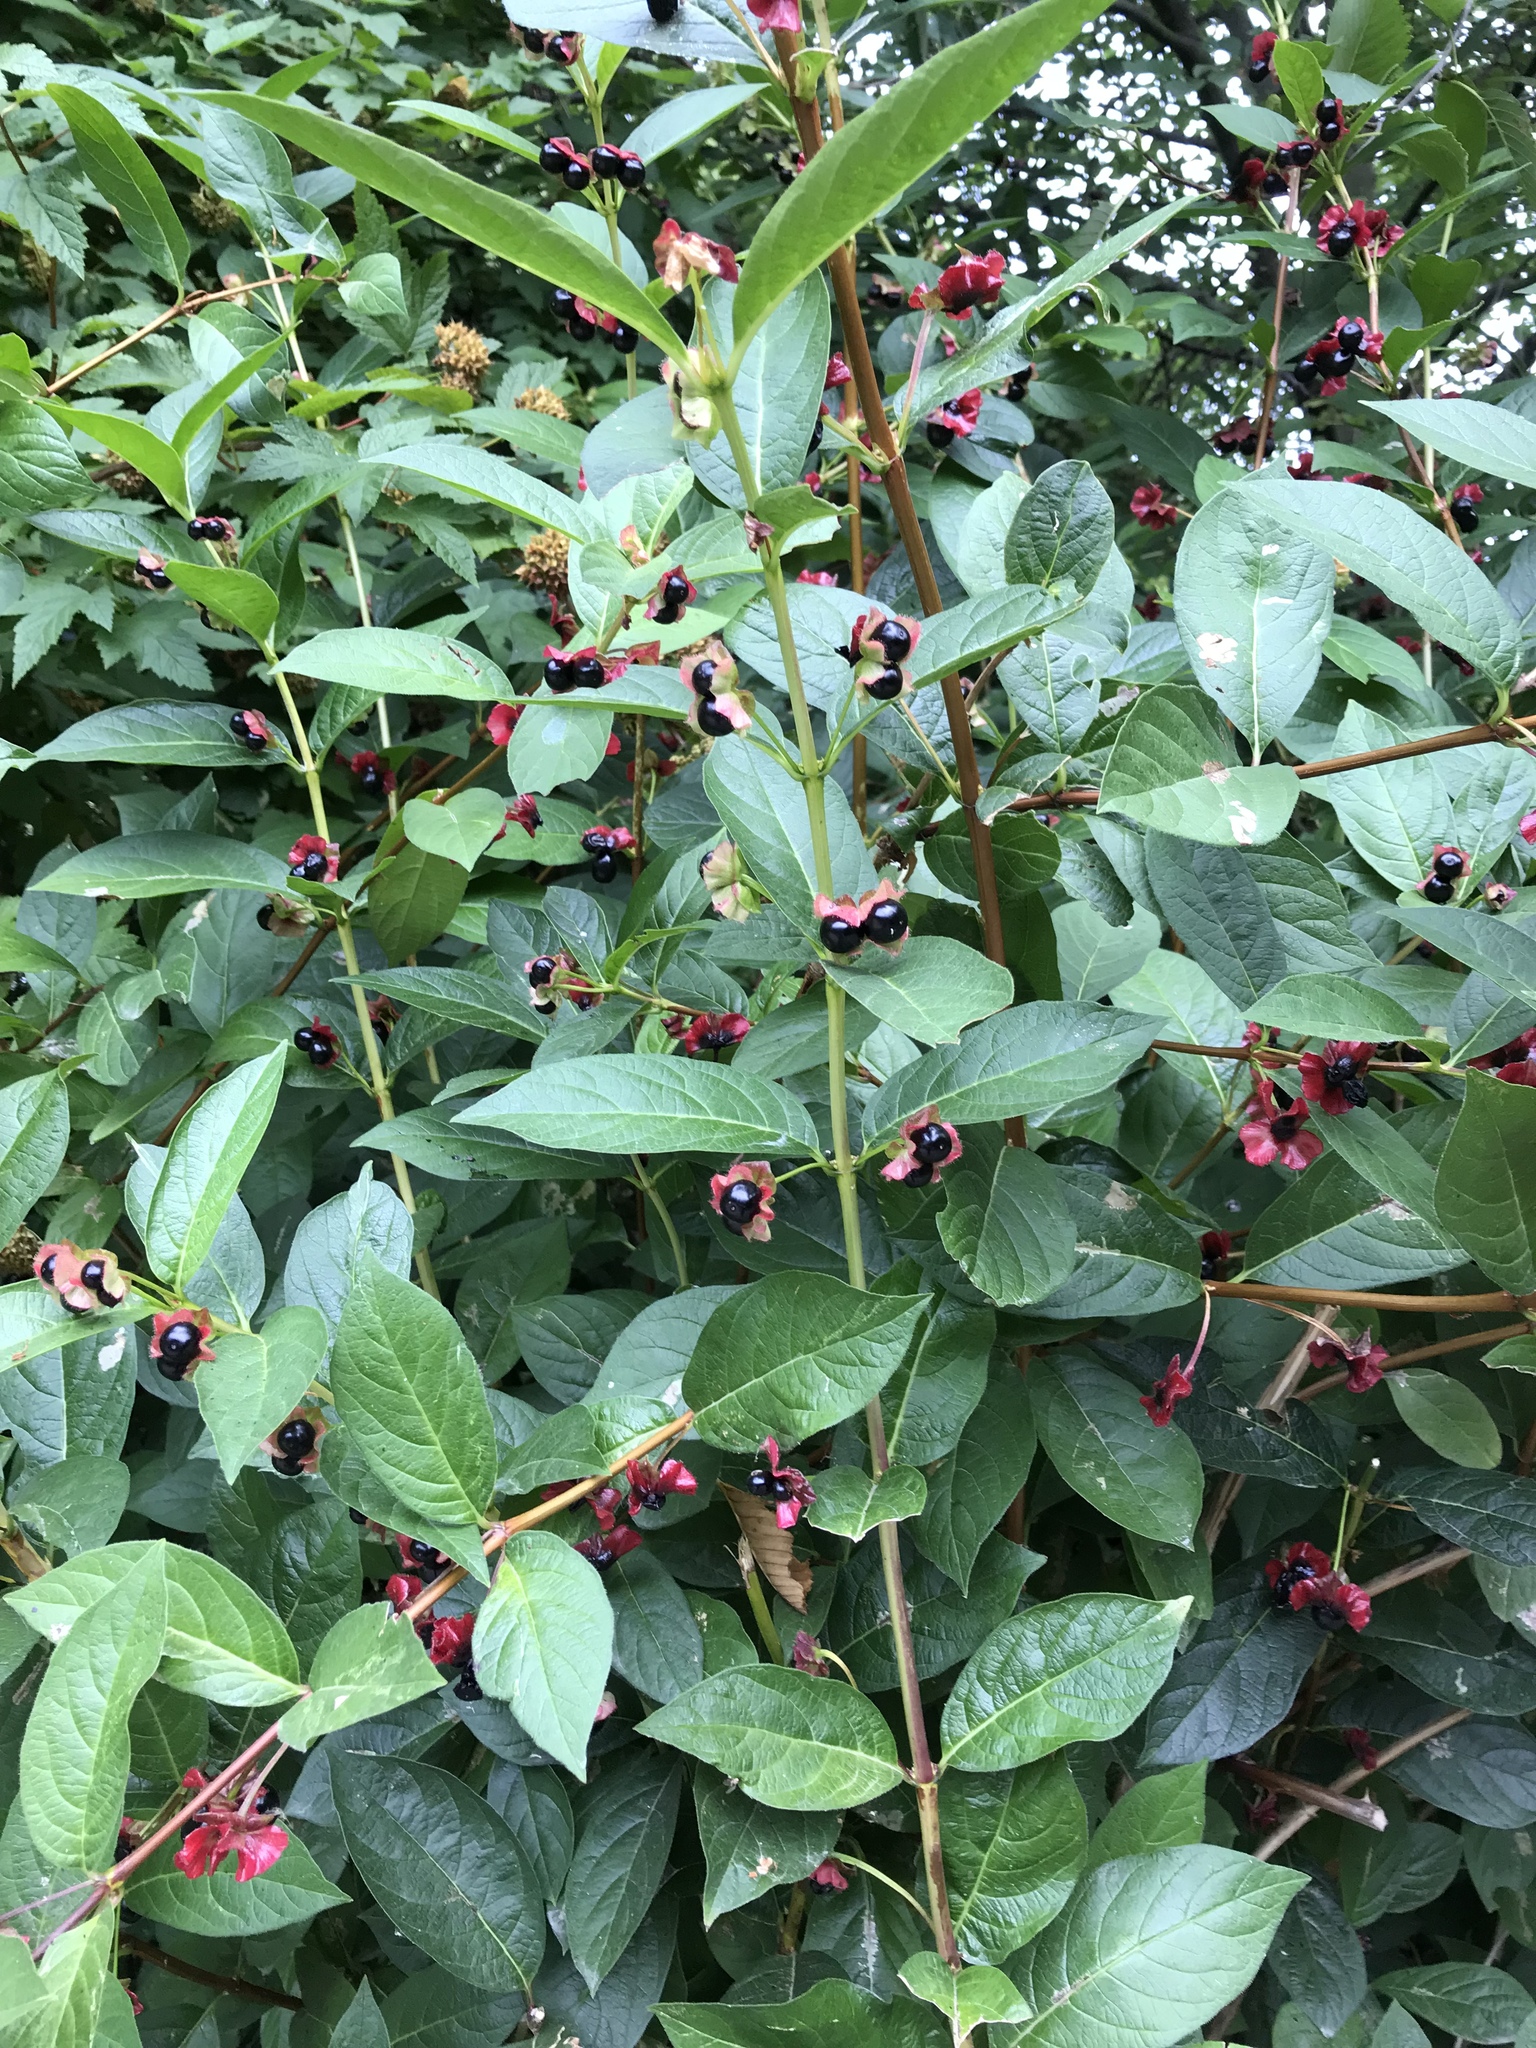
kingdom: Plantae
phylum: Tracheophyta
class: Magnoliopsida
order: Dipsacales
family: Caprifoliaceae
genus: Lonicera
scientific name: Lonicera involucrata
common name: Californian honeysuckle
